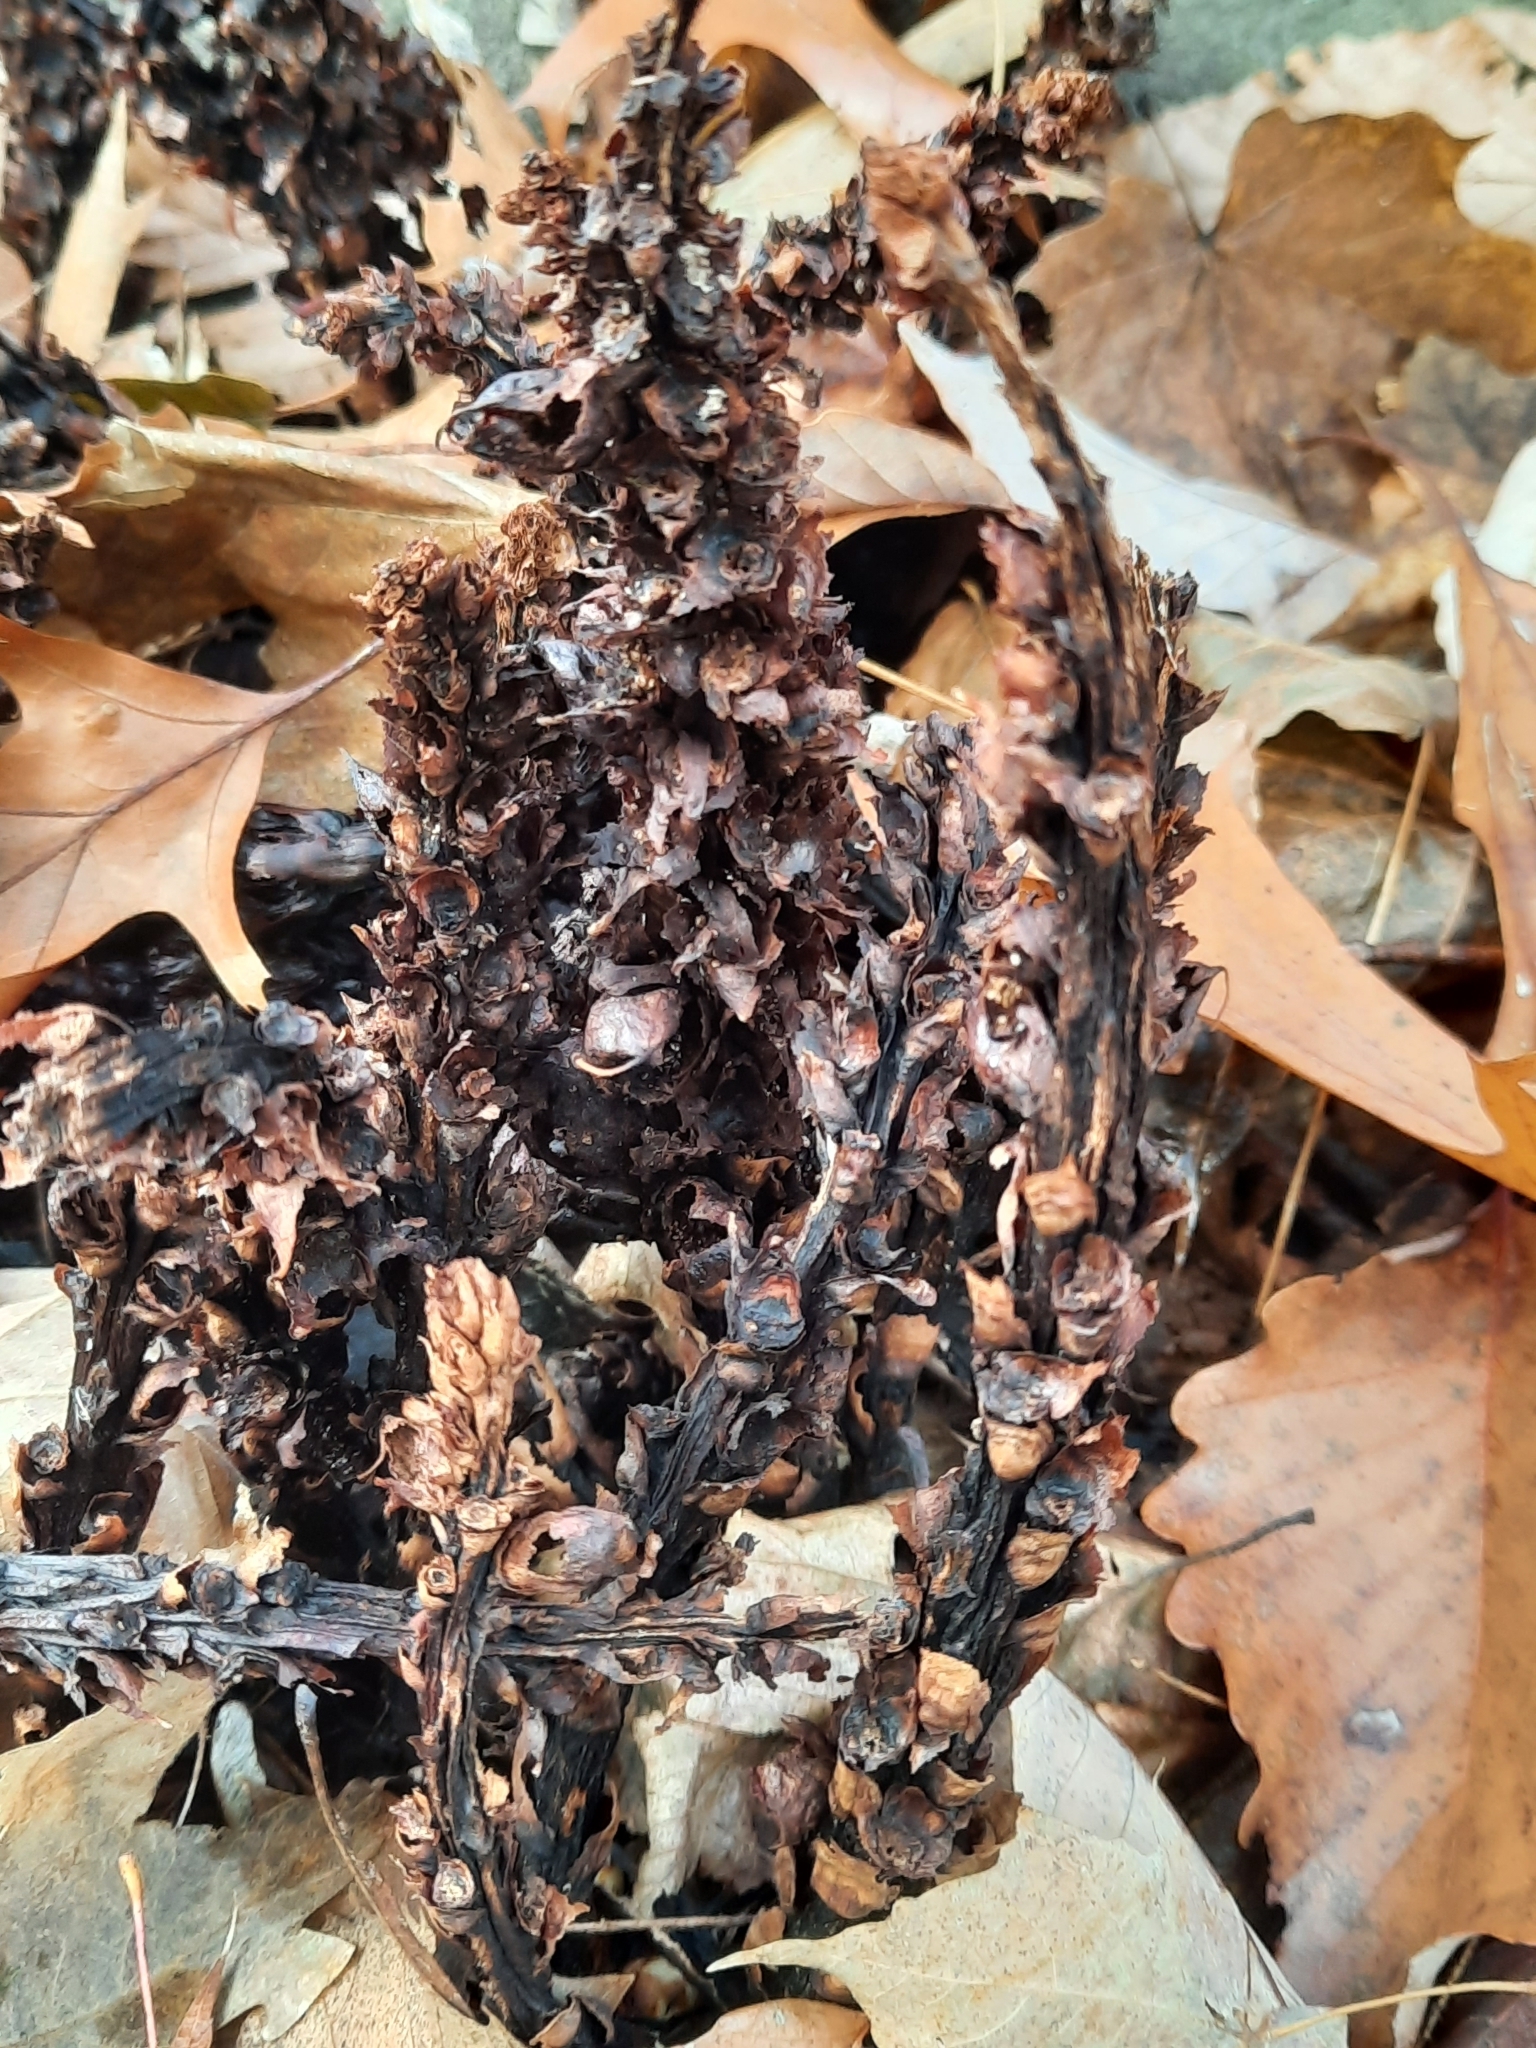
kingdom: Plantae
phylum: Tracheophyta
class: Magnoliopsida
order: Lamiales
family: Orobanchaceae
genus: Conopholis
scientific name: Conopholis americana
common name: American cancer-root
